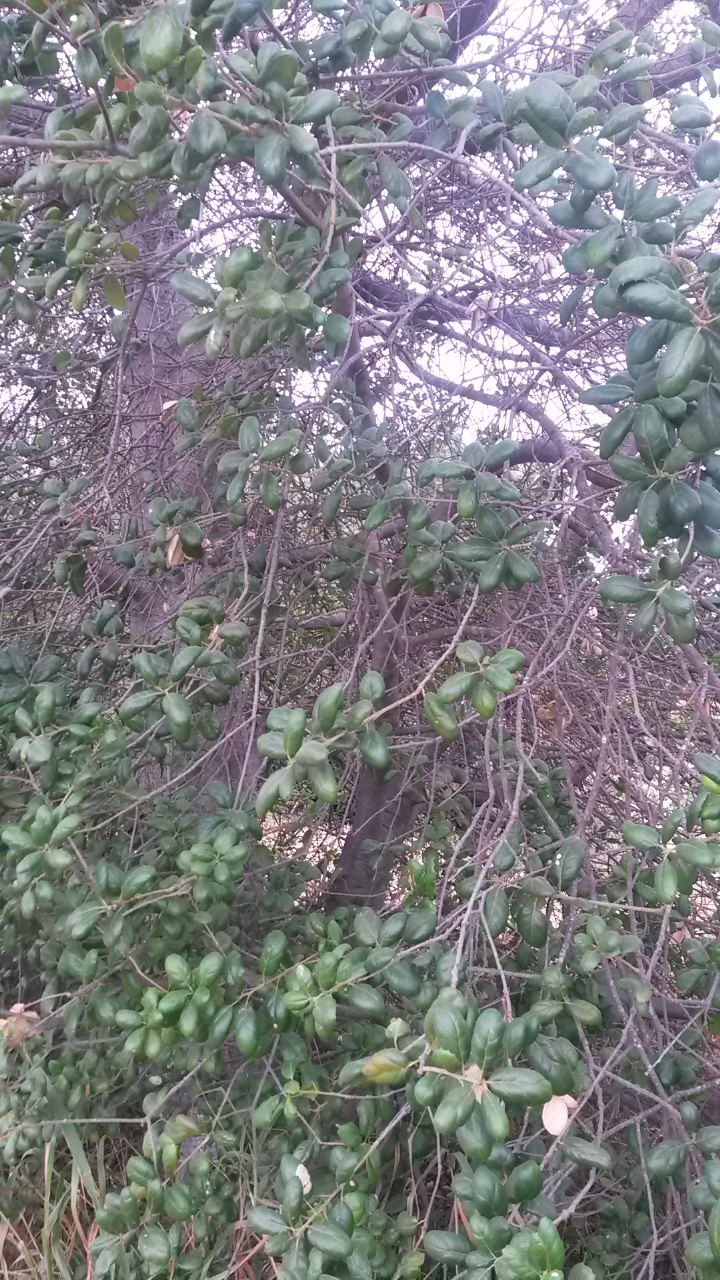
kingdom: Plantae
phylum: Tracheophyta
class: Magnoliopsida
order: Fagales
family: Fagaceae
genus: Quercus
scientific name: Quercus agrifolia
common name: California live oak
